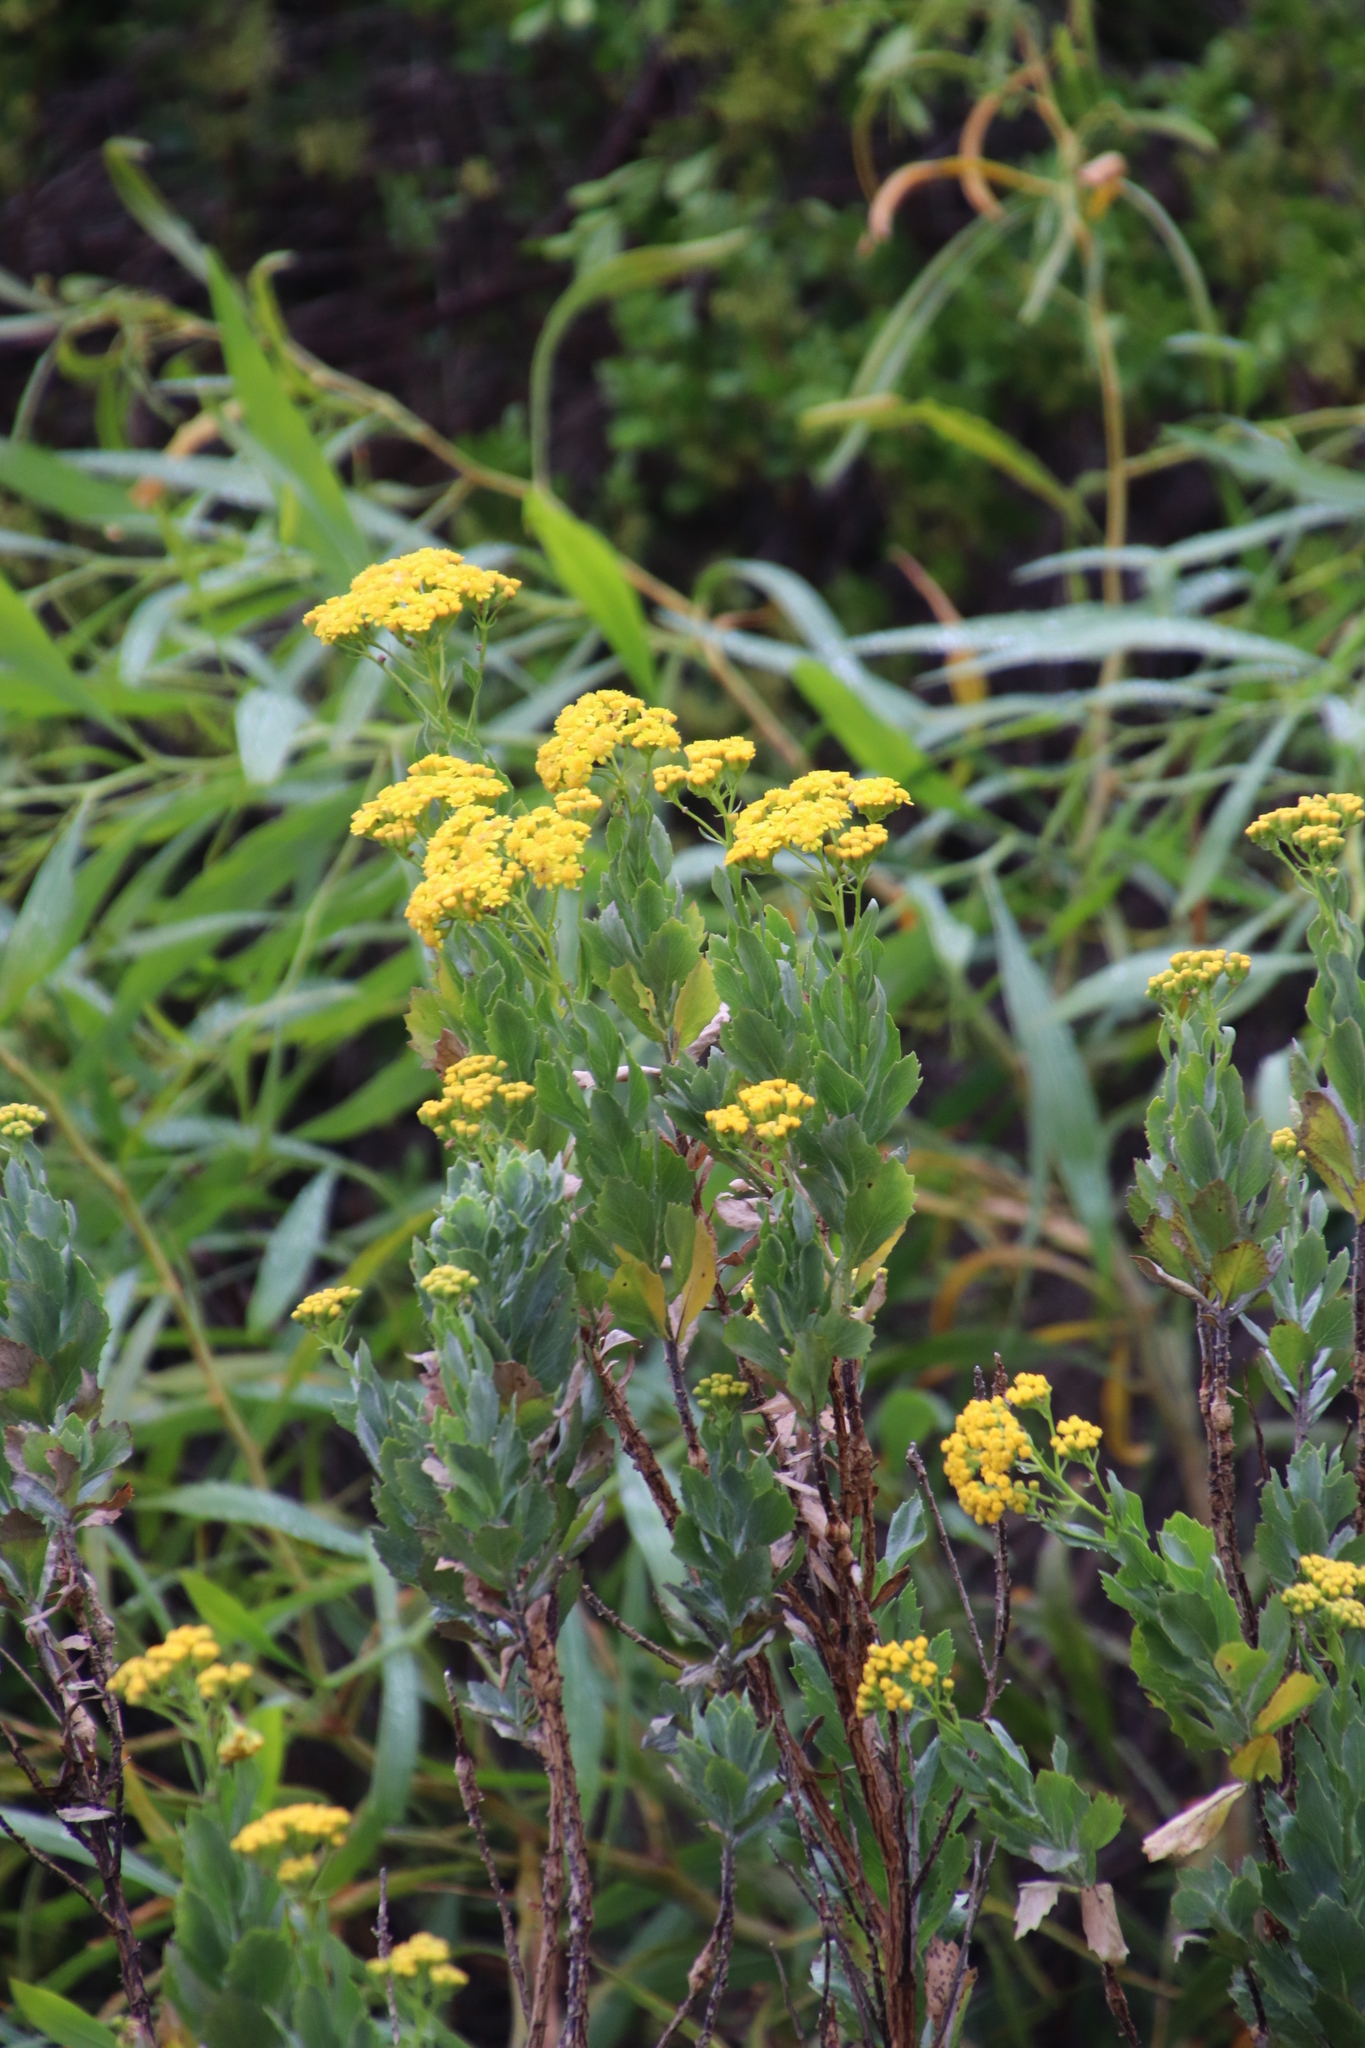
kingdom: Plantae
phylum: Tracheophyta
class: Magnoliopsida
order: Asterales
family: Asteraceae
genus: Senecio
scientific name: Senecio halimifolius
